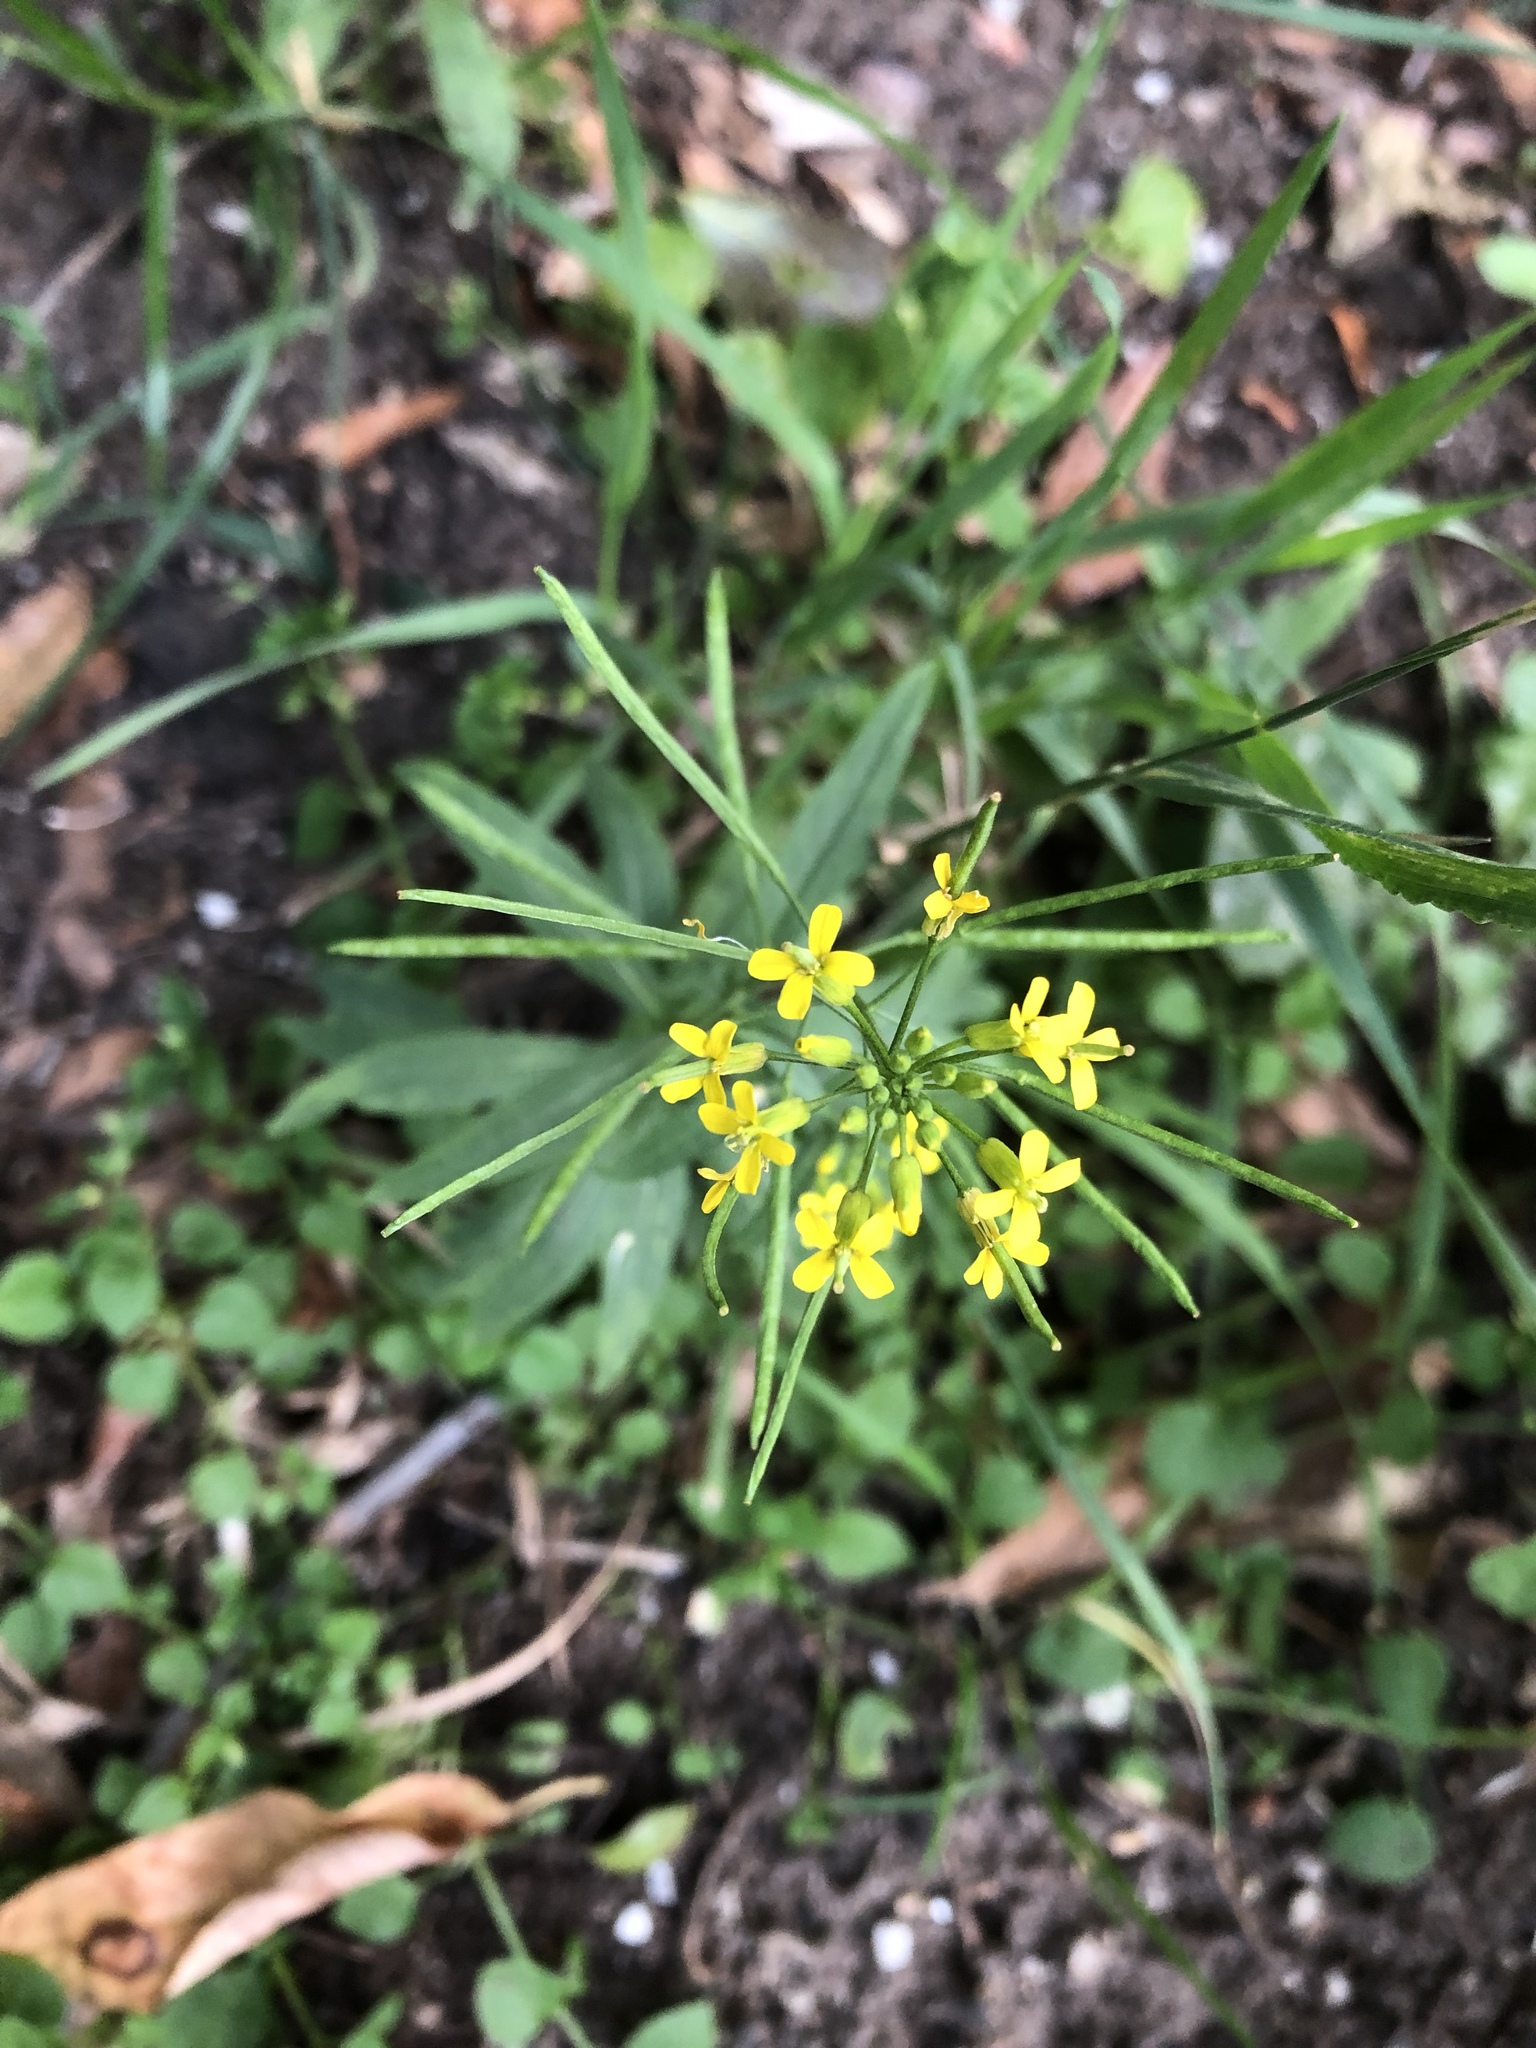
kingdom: Plantae
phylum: Tracheophyta
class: Magnoliopsida
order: Brassicales
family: Brassicaceae
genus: Erysimum
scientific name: Erysimum cheiranthoides
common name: Treacle mustard
